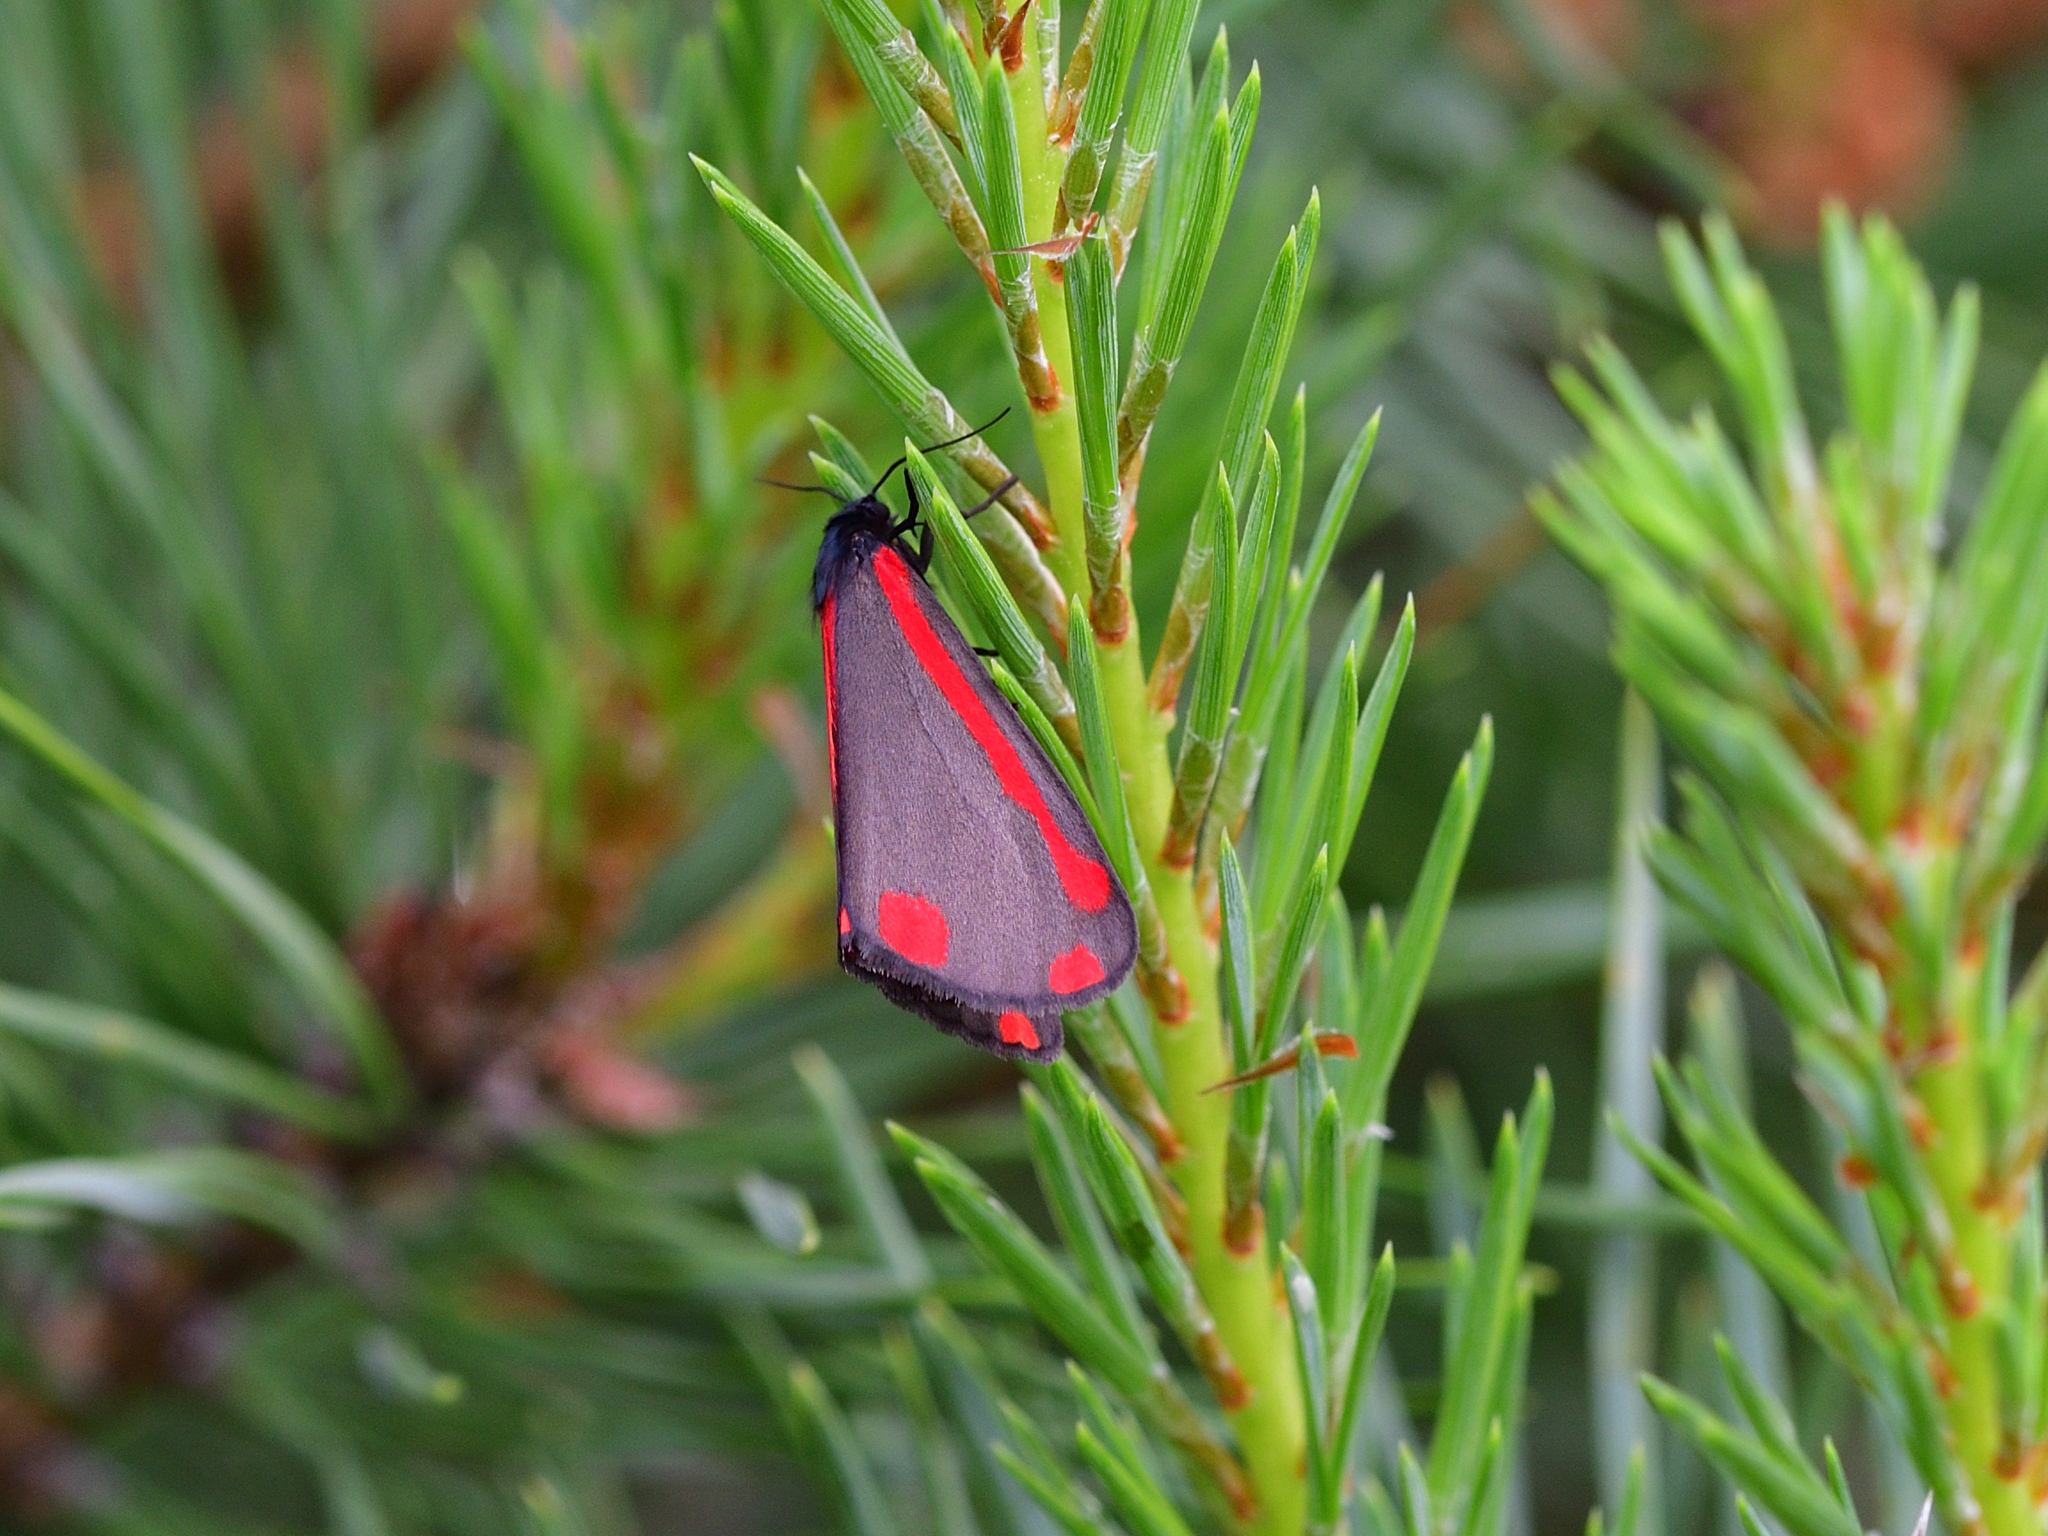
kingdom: Animalia
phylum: Arthropoda
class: Insecta
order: Lepidoptera
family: Erebidae
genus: Tyria
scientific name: Tyria jacobaeae
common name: Cinnabar
